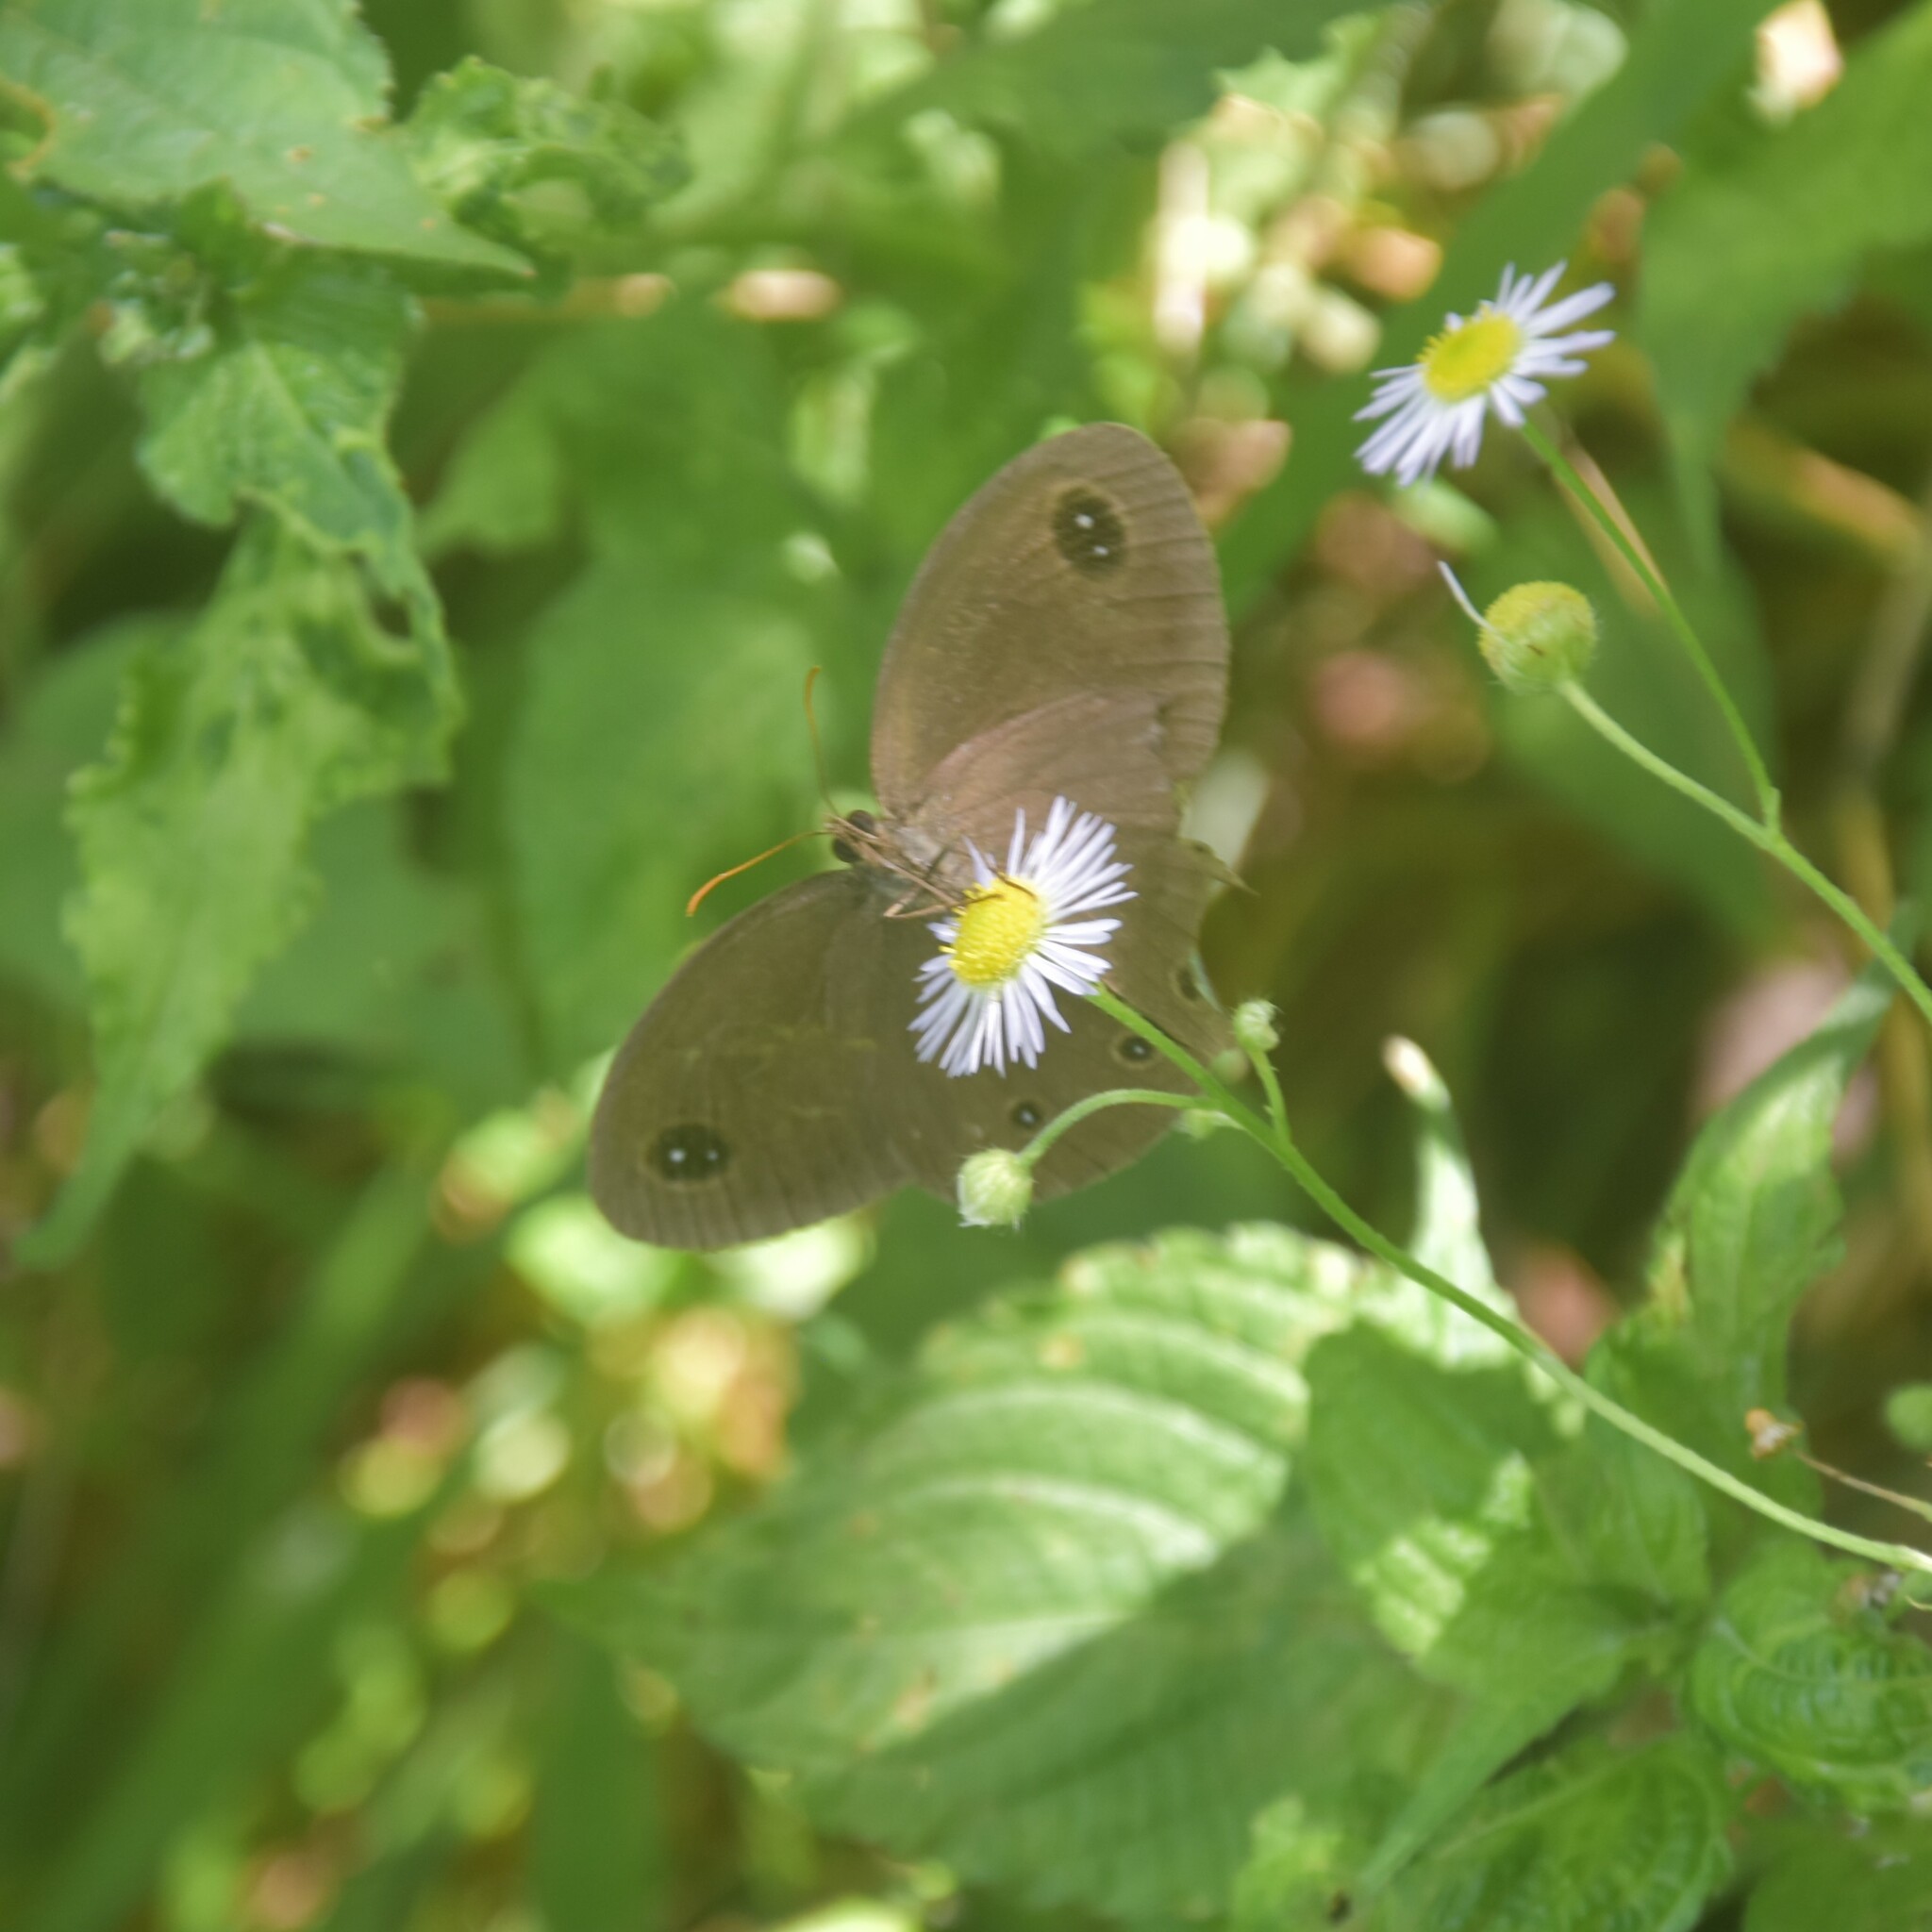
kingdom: Animalia
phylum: Arthropoda
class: Insecta
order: Lepidoptera
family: Nymphalidae
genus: Callerebia
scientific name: Callerebia nirmala
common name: Common argus
